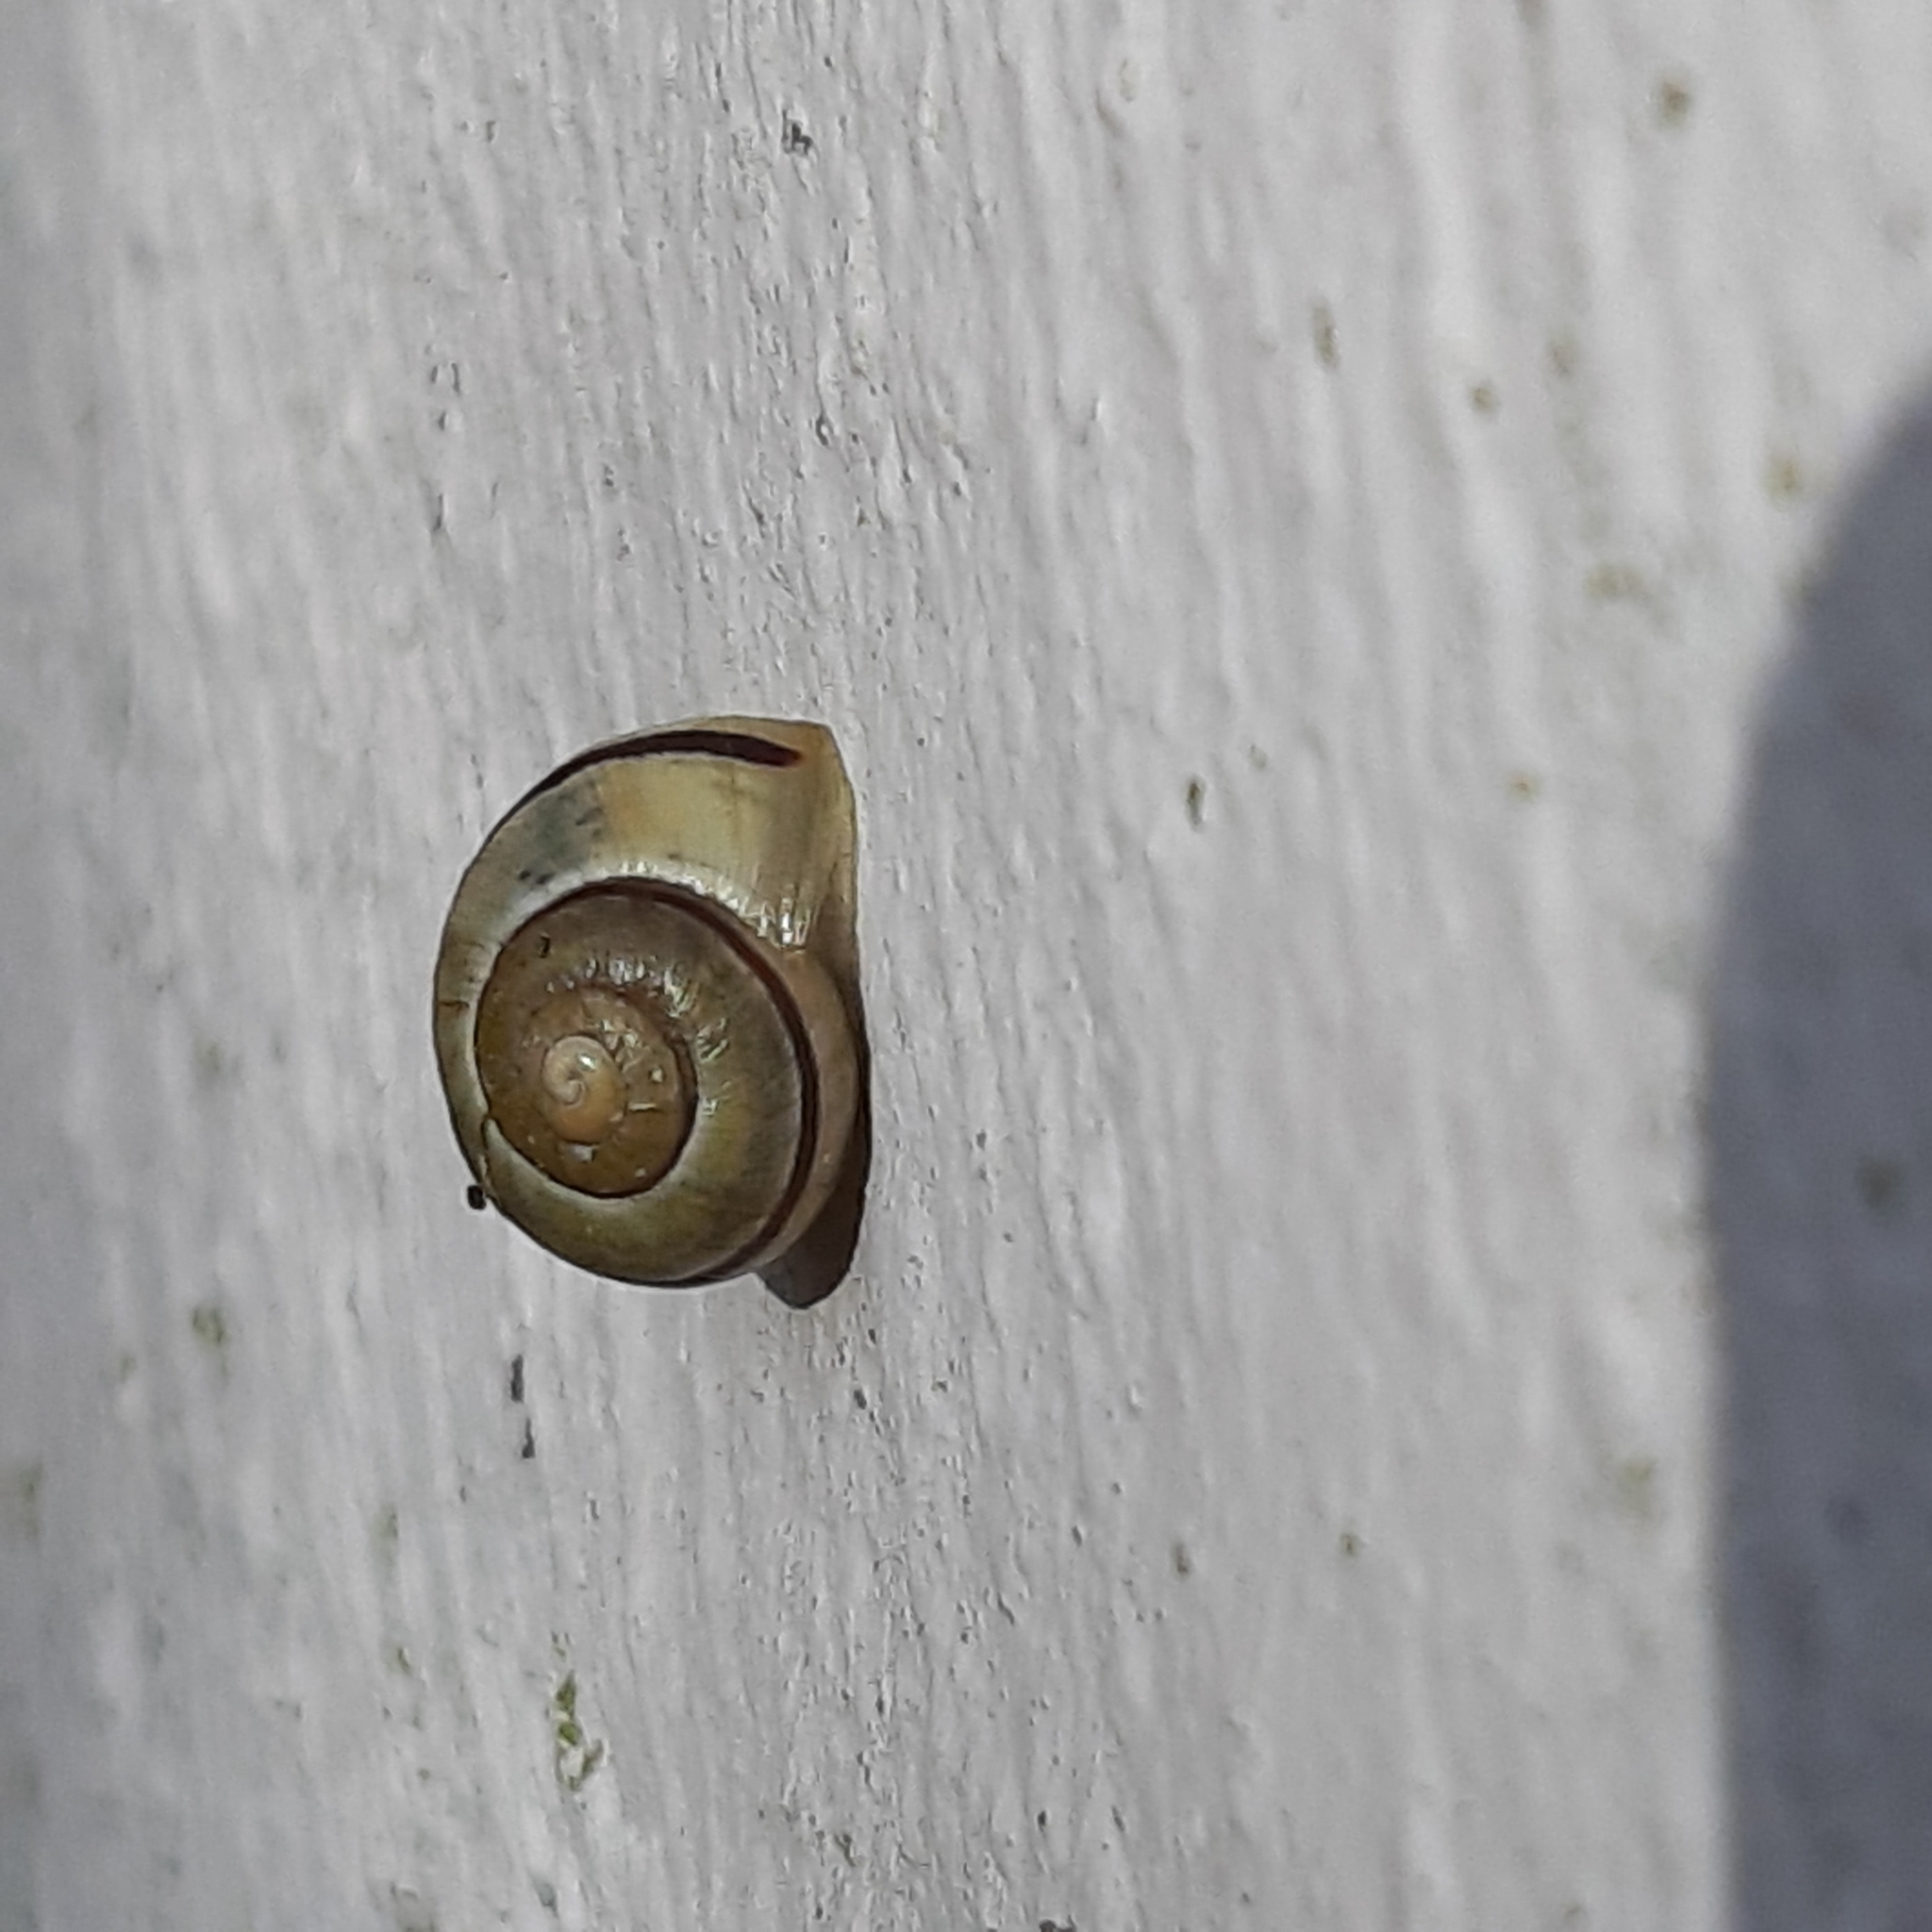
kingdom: Animalia
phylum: Mollusca
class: Gastropoda
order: Stylommatophora
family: Helicidae
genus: Cepaea
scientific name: Cepaea nemoralis
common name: Grovesnail
